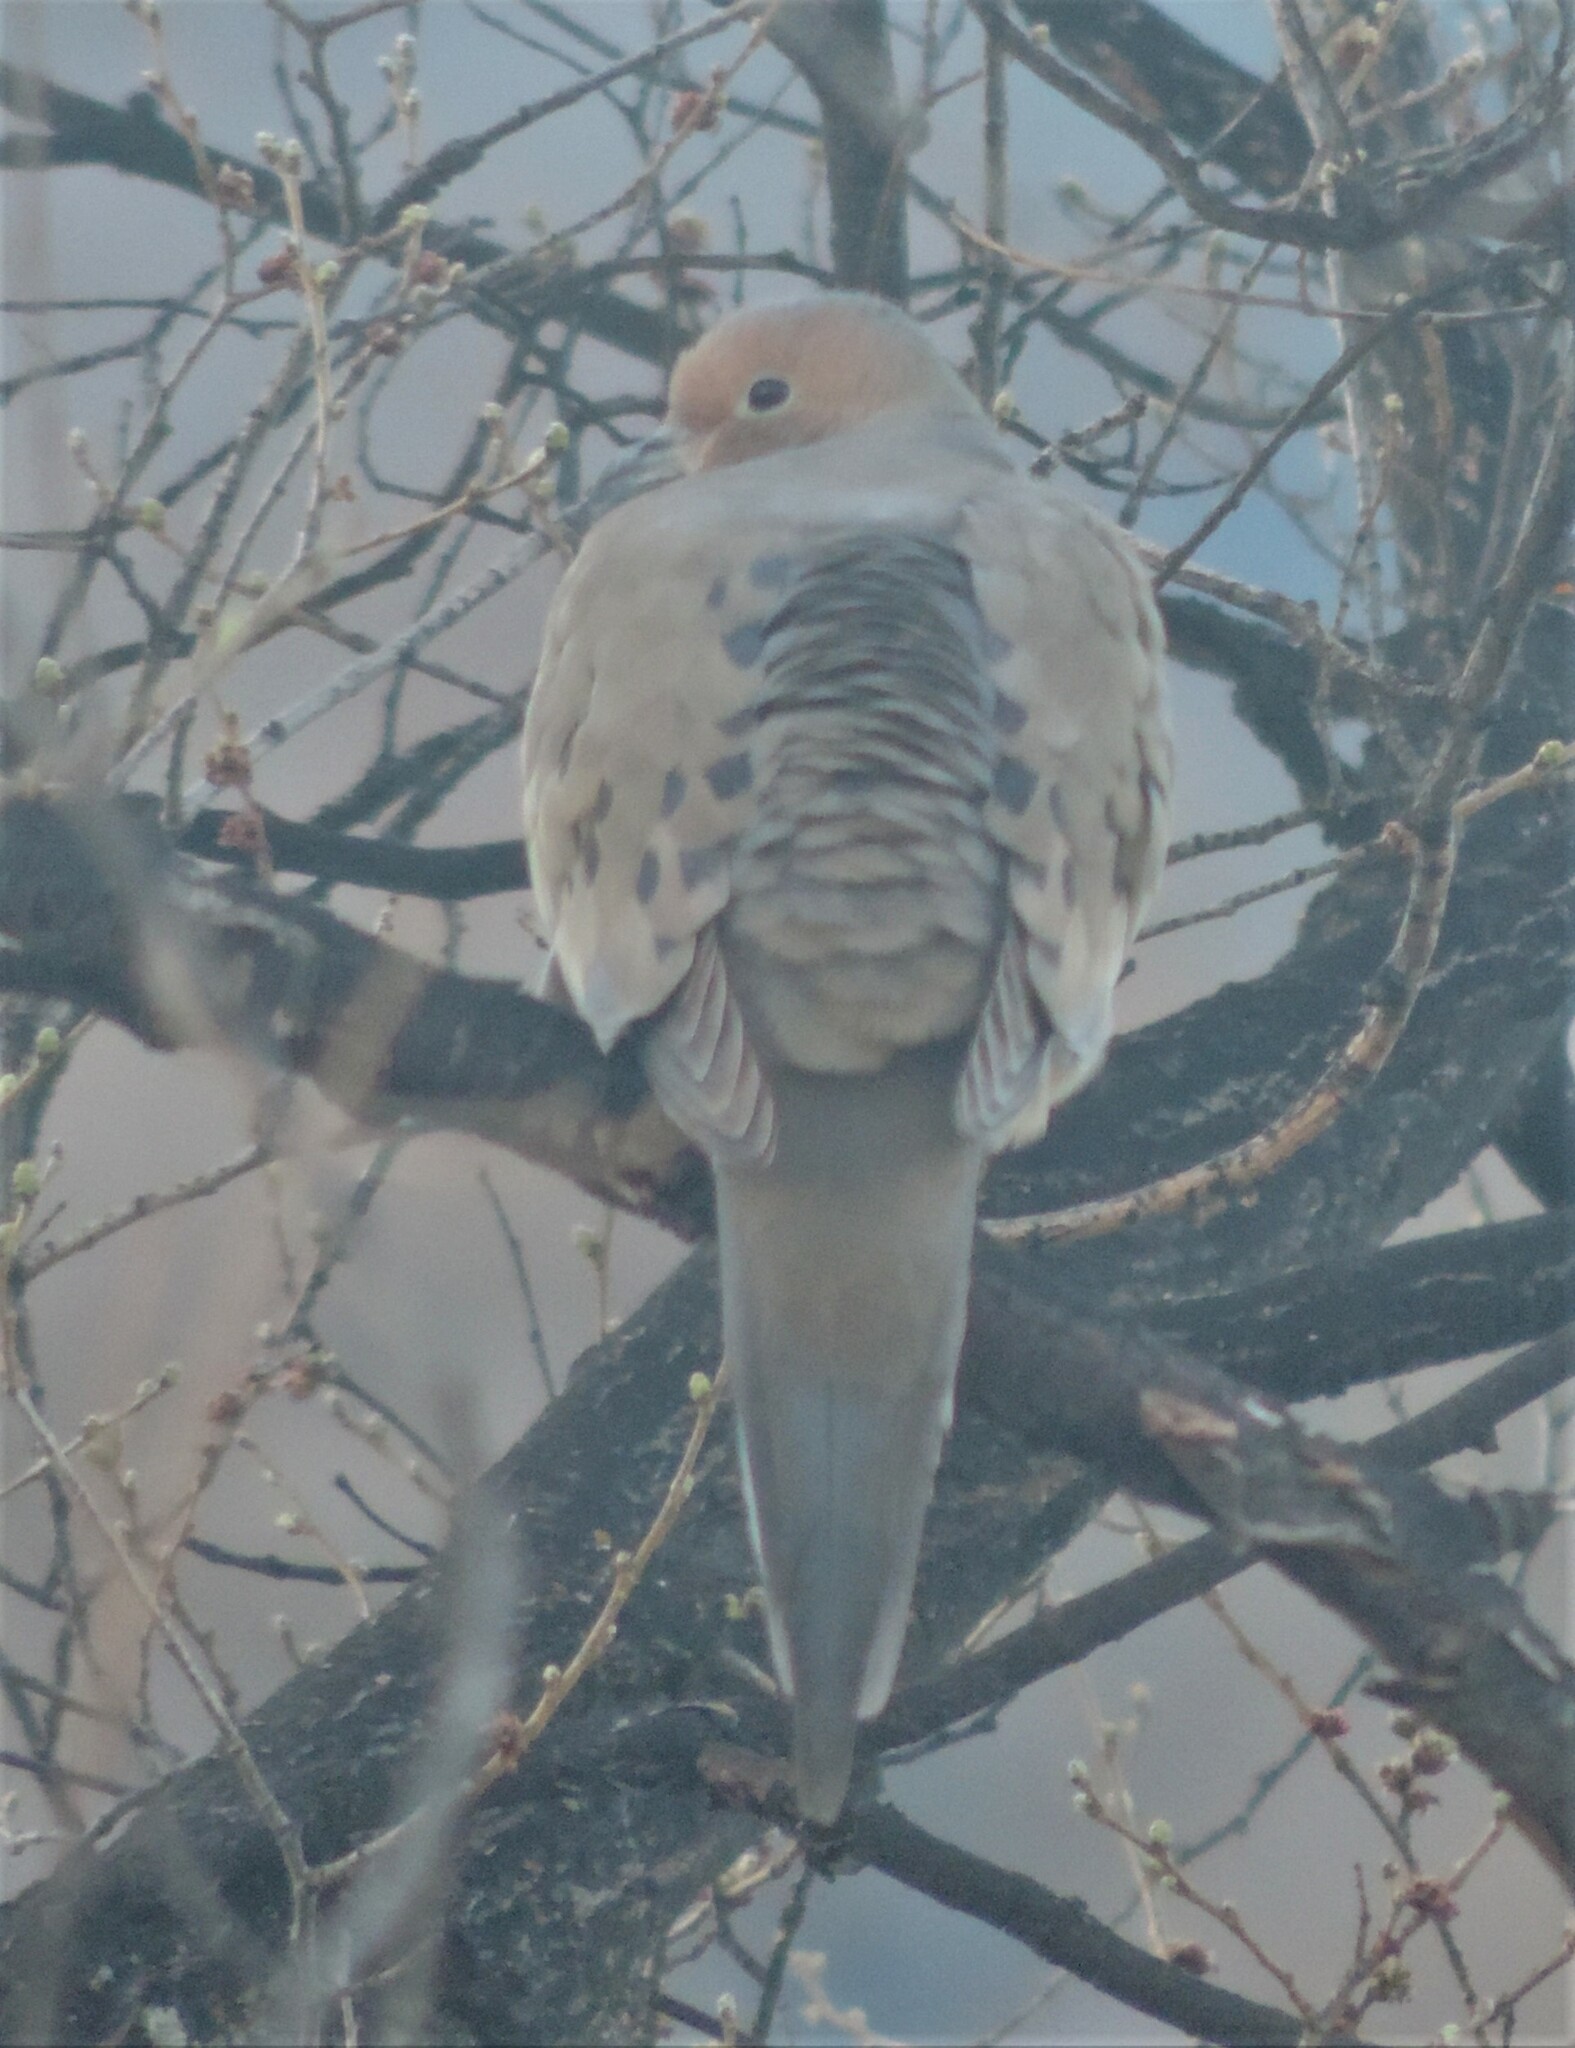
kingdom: Animalia
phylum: Chordata
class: Aves
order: Columbiformes
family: Columbidae
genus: Zenaida
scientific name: Zenaida macroura
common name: Mourning dove
